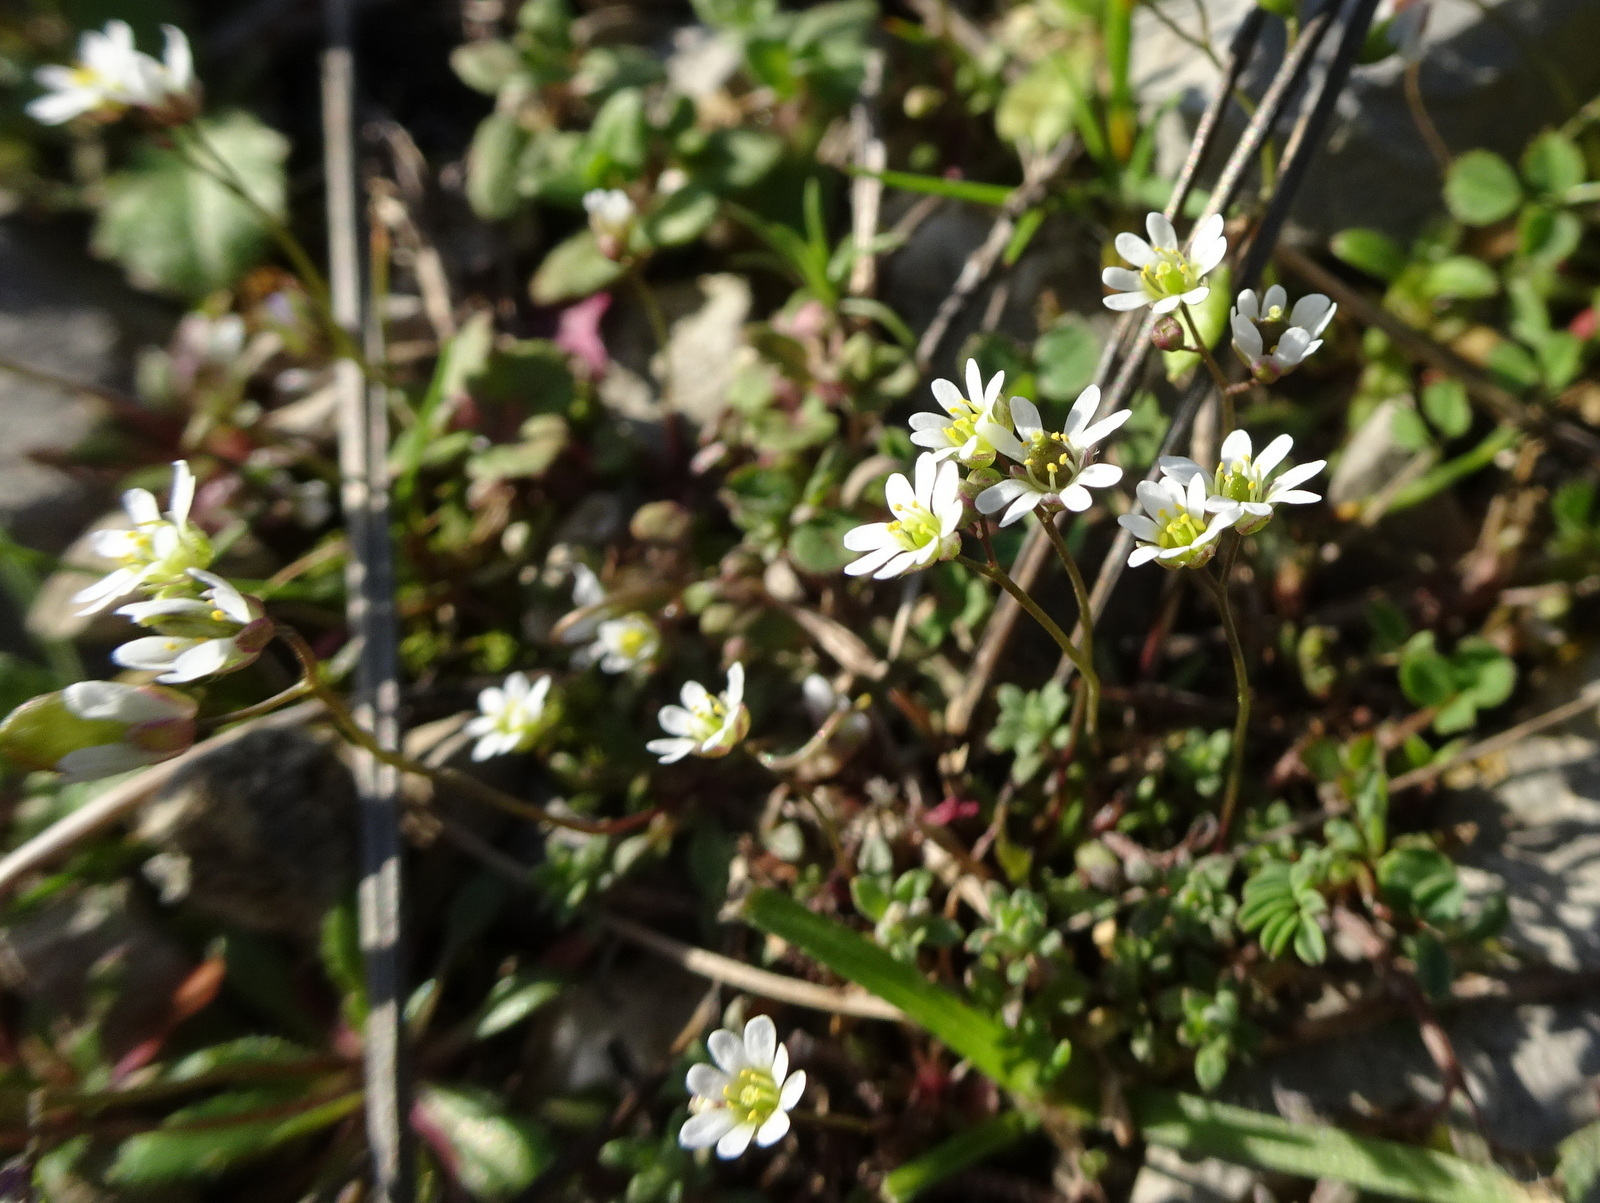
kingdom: Plantae
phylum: Tracheophyta
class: Magnoliopsida
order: Brassicales
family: Brassicaceae
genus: Draba
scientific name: Draba verna
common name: Spring draba
